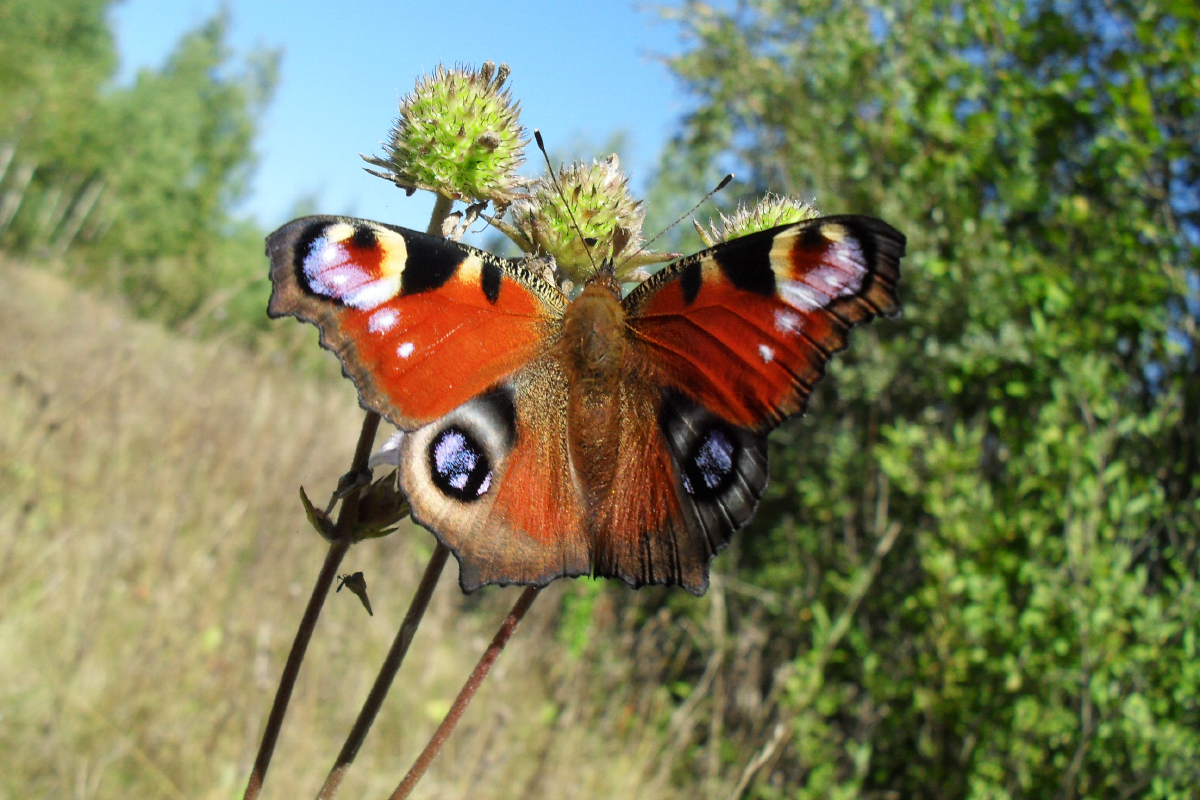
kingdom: Animalia
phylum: Arthropoda
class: Insecta
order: Lepidoptera
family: Nymphalidae
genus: Aglais
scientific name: Aglais io
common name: Peacock
